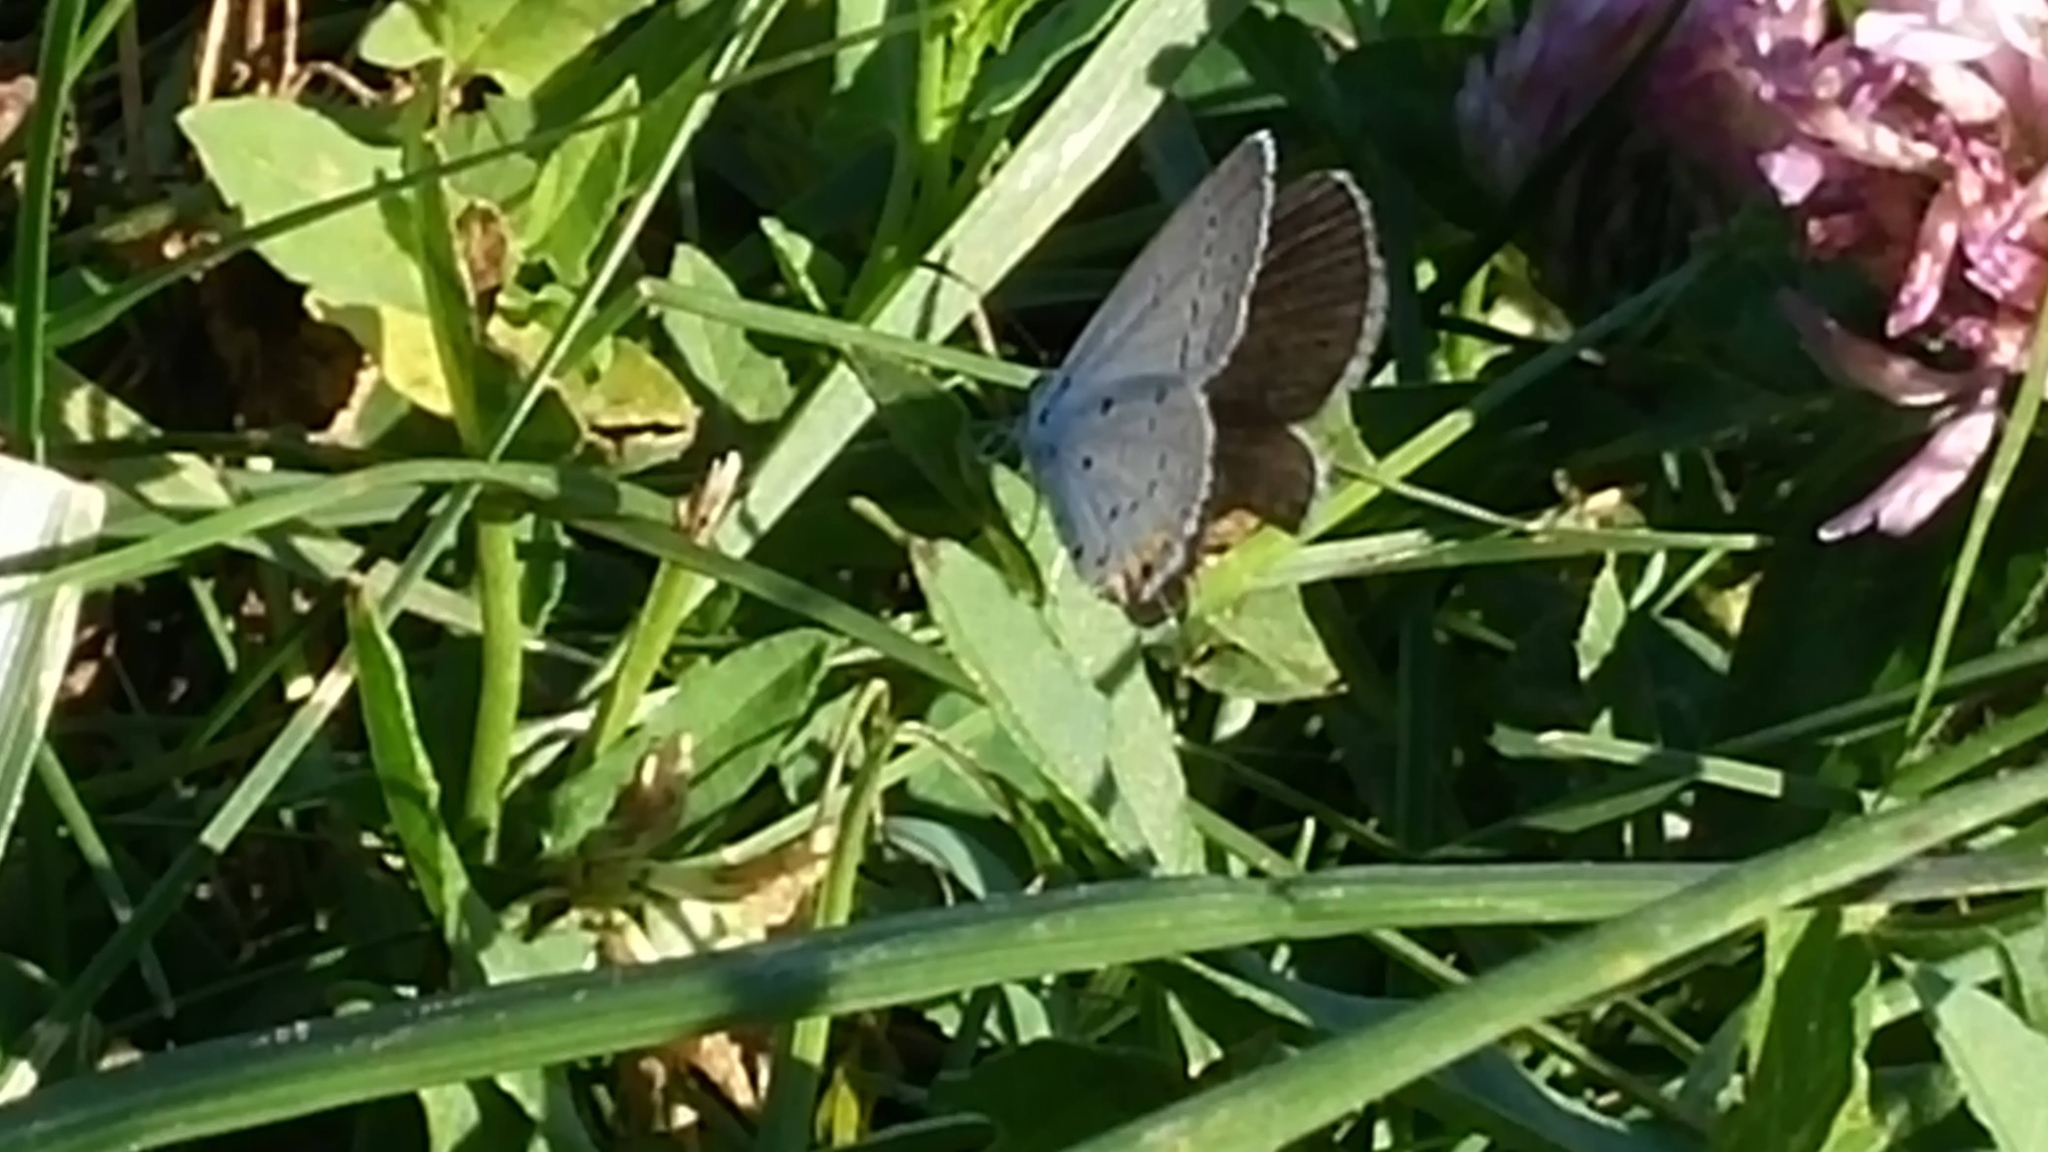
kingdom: Animalia
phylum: Arthropoda
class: Insecta
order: Lepidoptera
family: Lycaenidae
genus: Elkalyce
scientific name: Elkalyce comyntas
